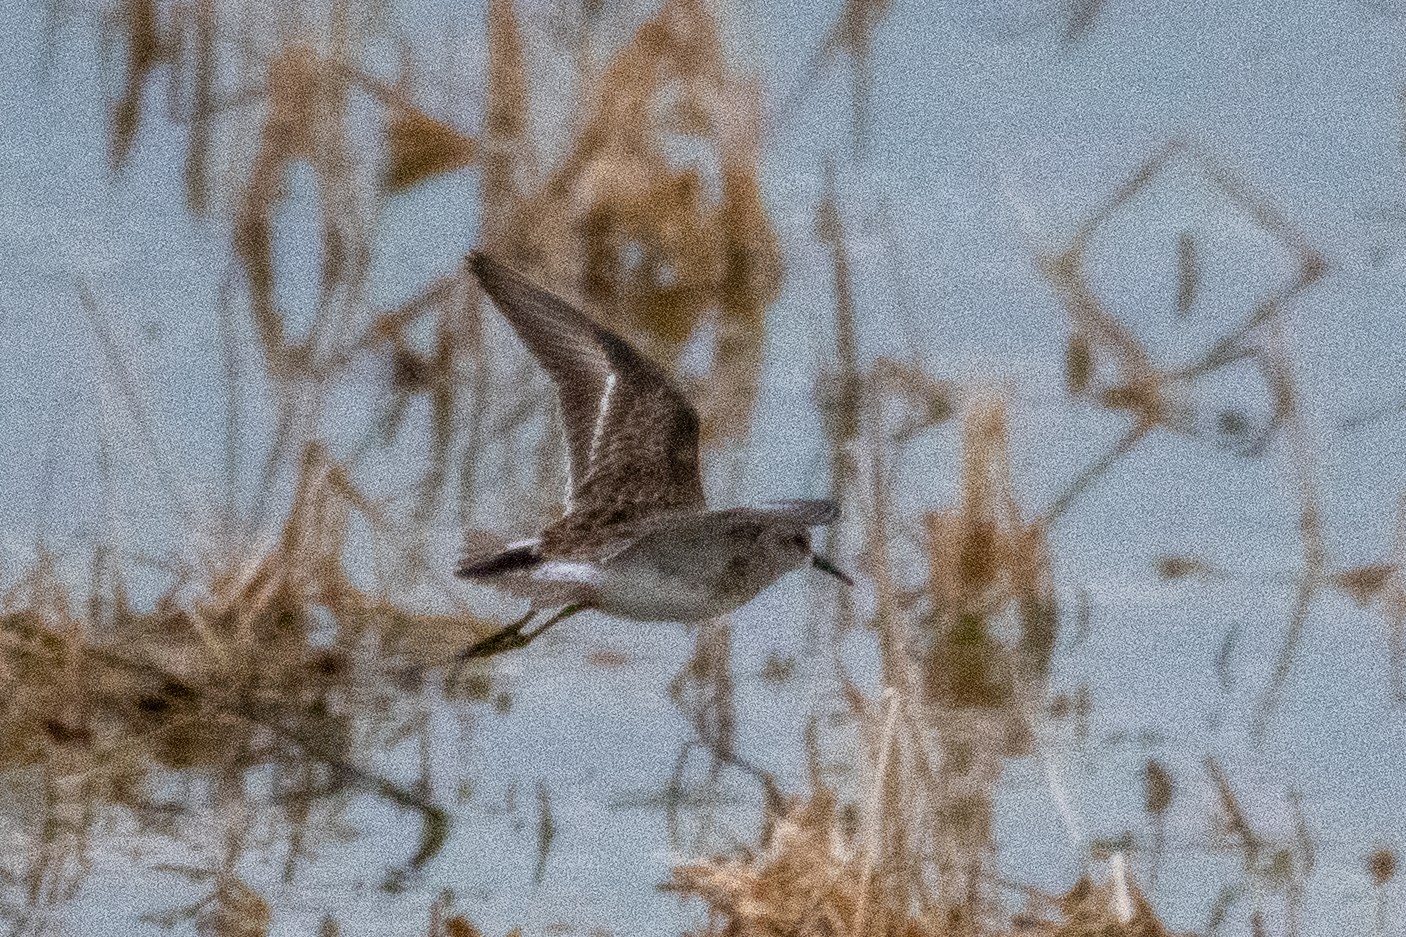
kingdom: Animalia
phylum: Chordata
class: Aves
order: Charadriiformes
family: Scolopacidae
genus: Calidris
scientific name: Calidris minutilla
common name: Least sandpiper
